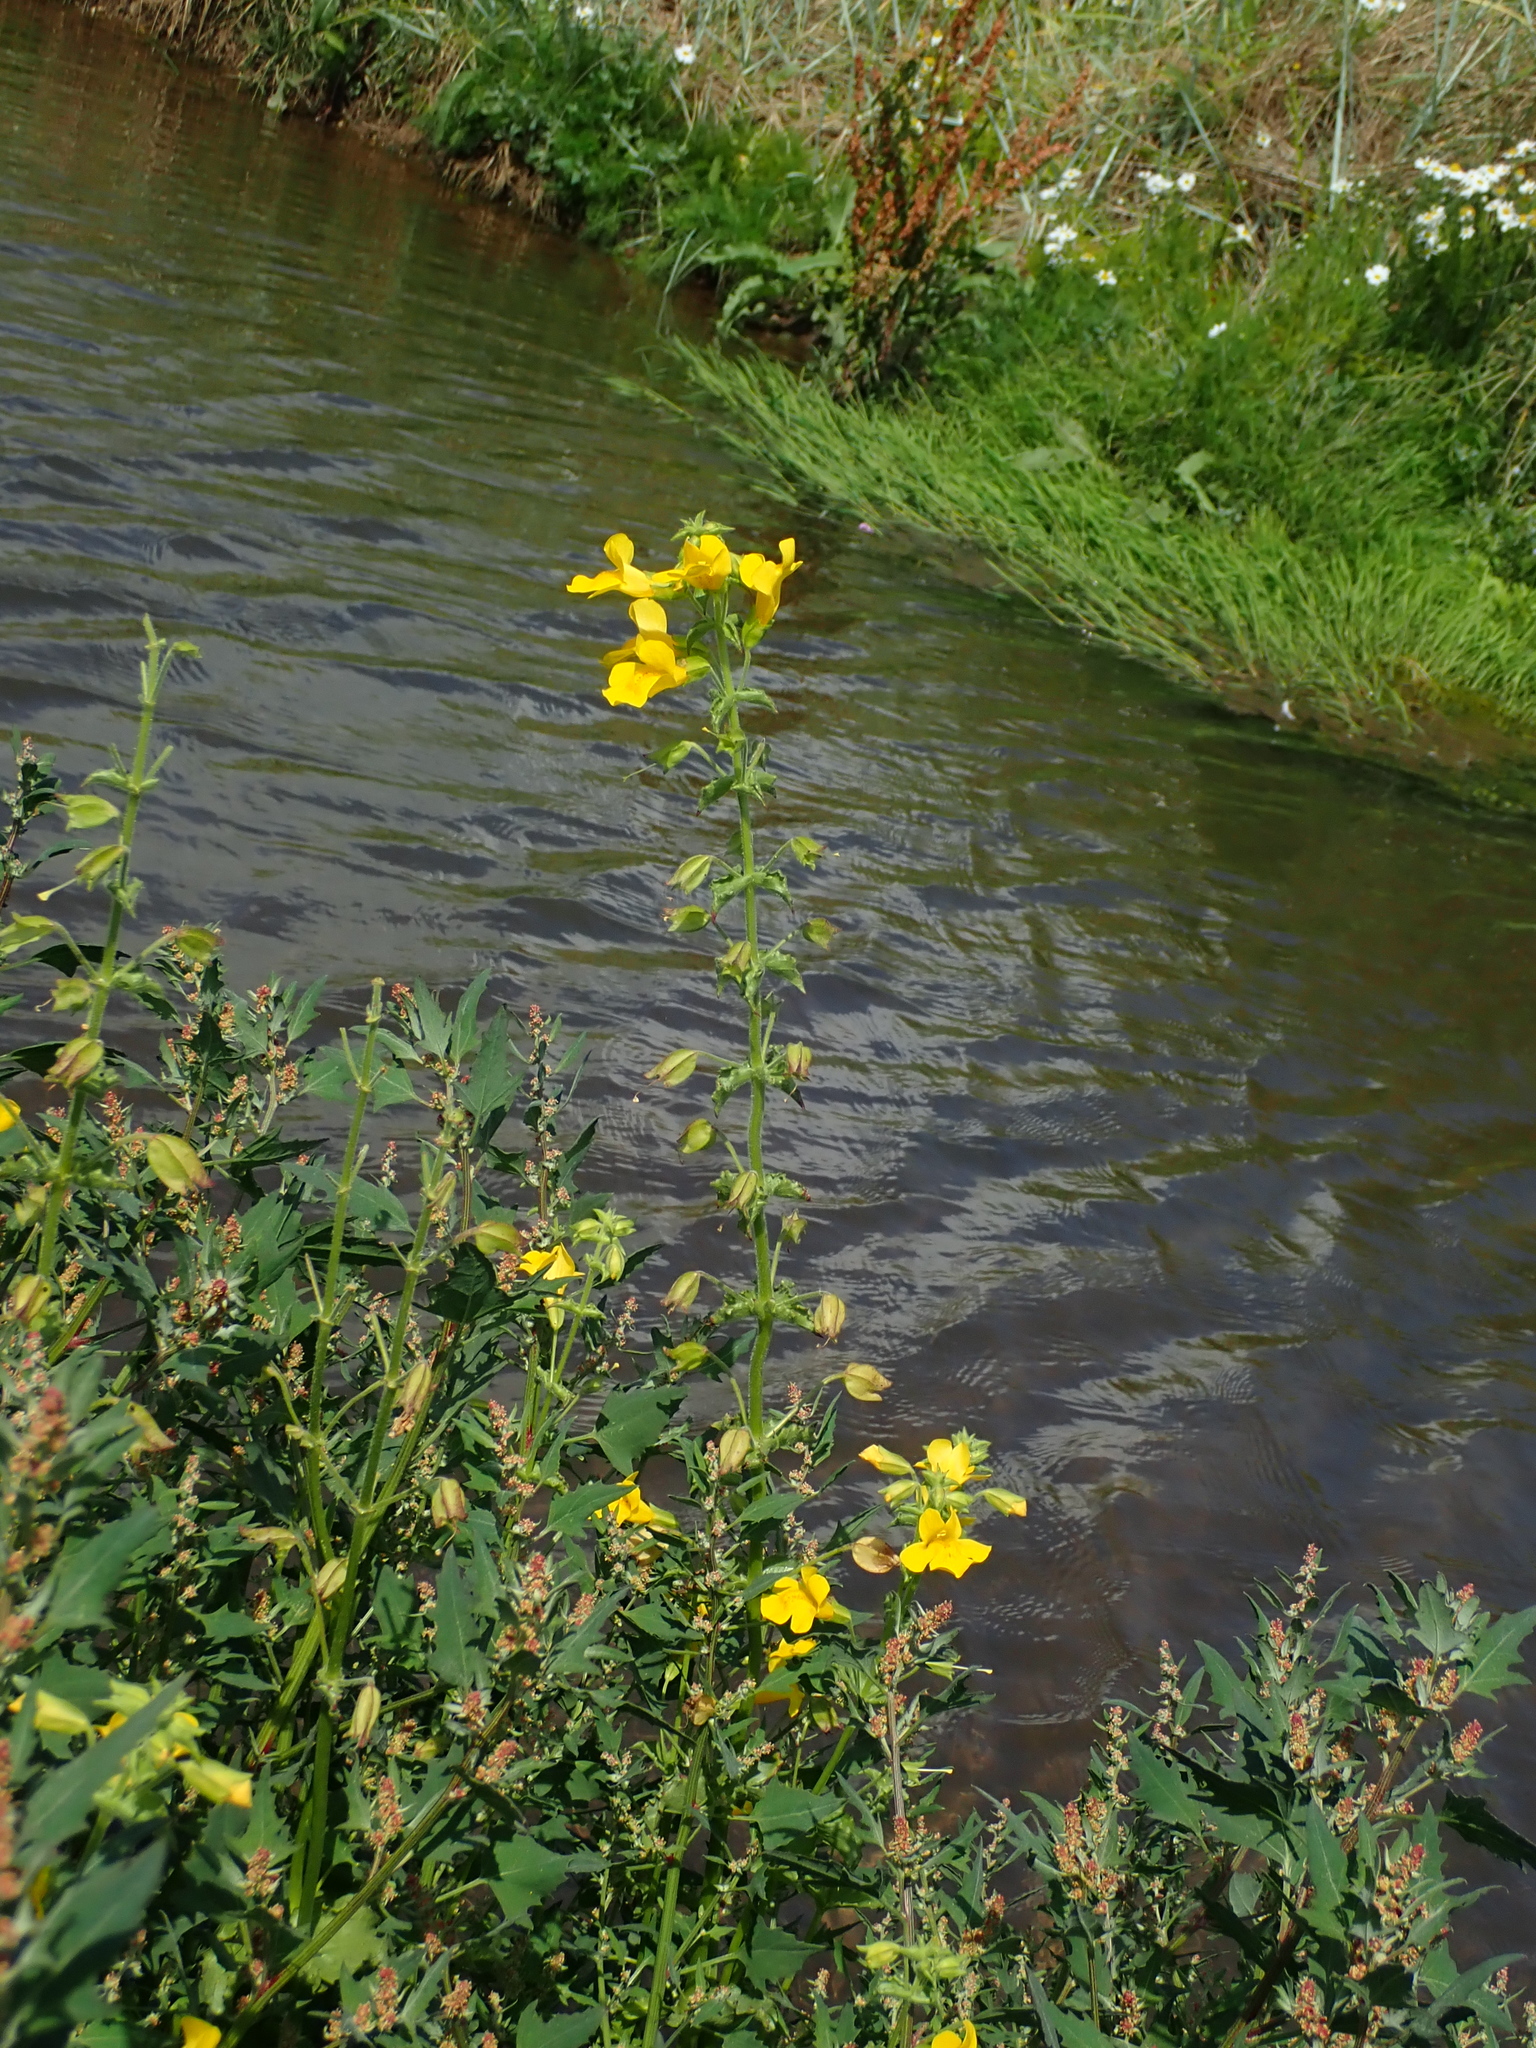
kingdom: Plantae
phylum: Tracheophyta
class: Magnoliopsida
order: Lamiales
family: Phrymaceae
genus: Erythranthe
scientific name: Erythranthe guttata
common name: Monkeyflower
